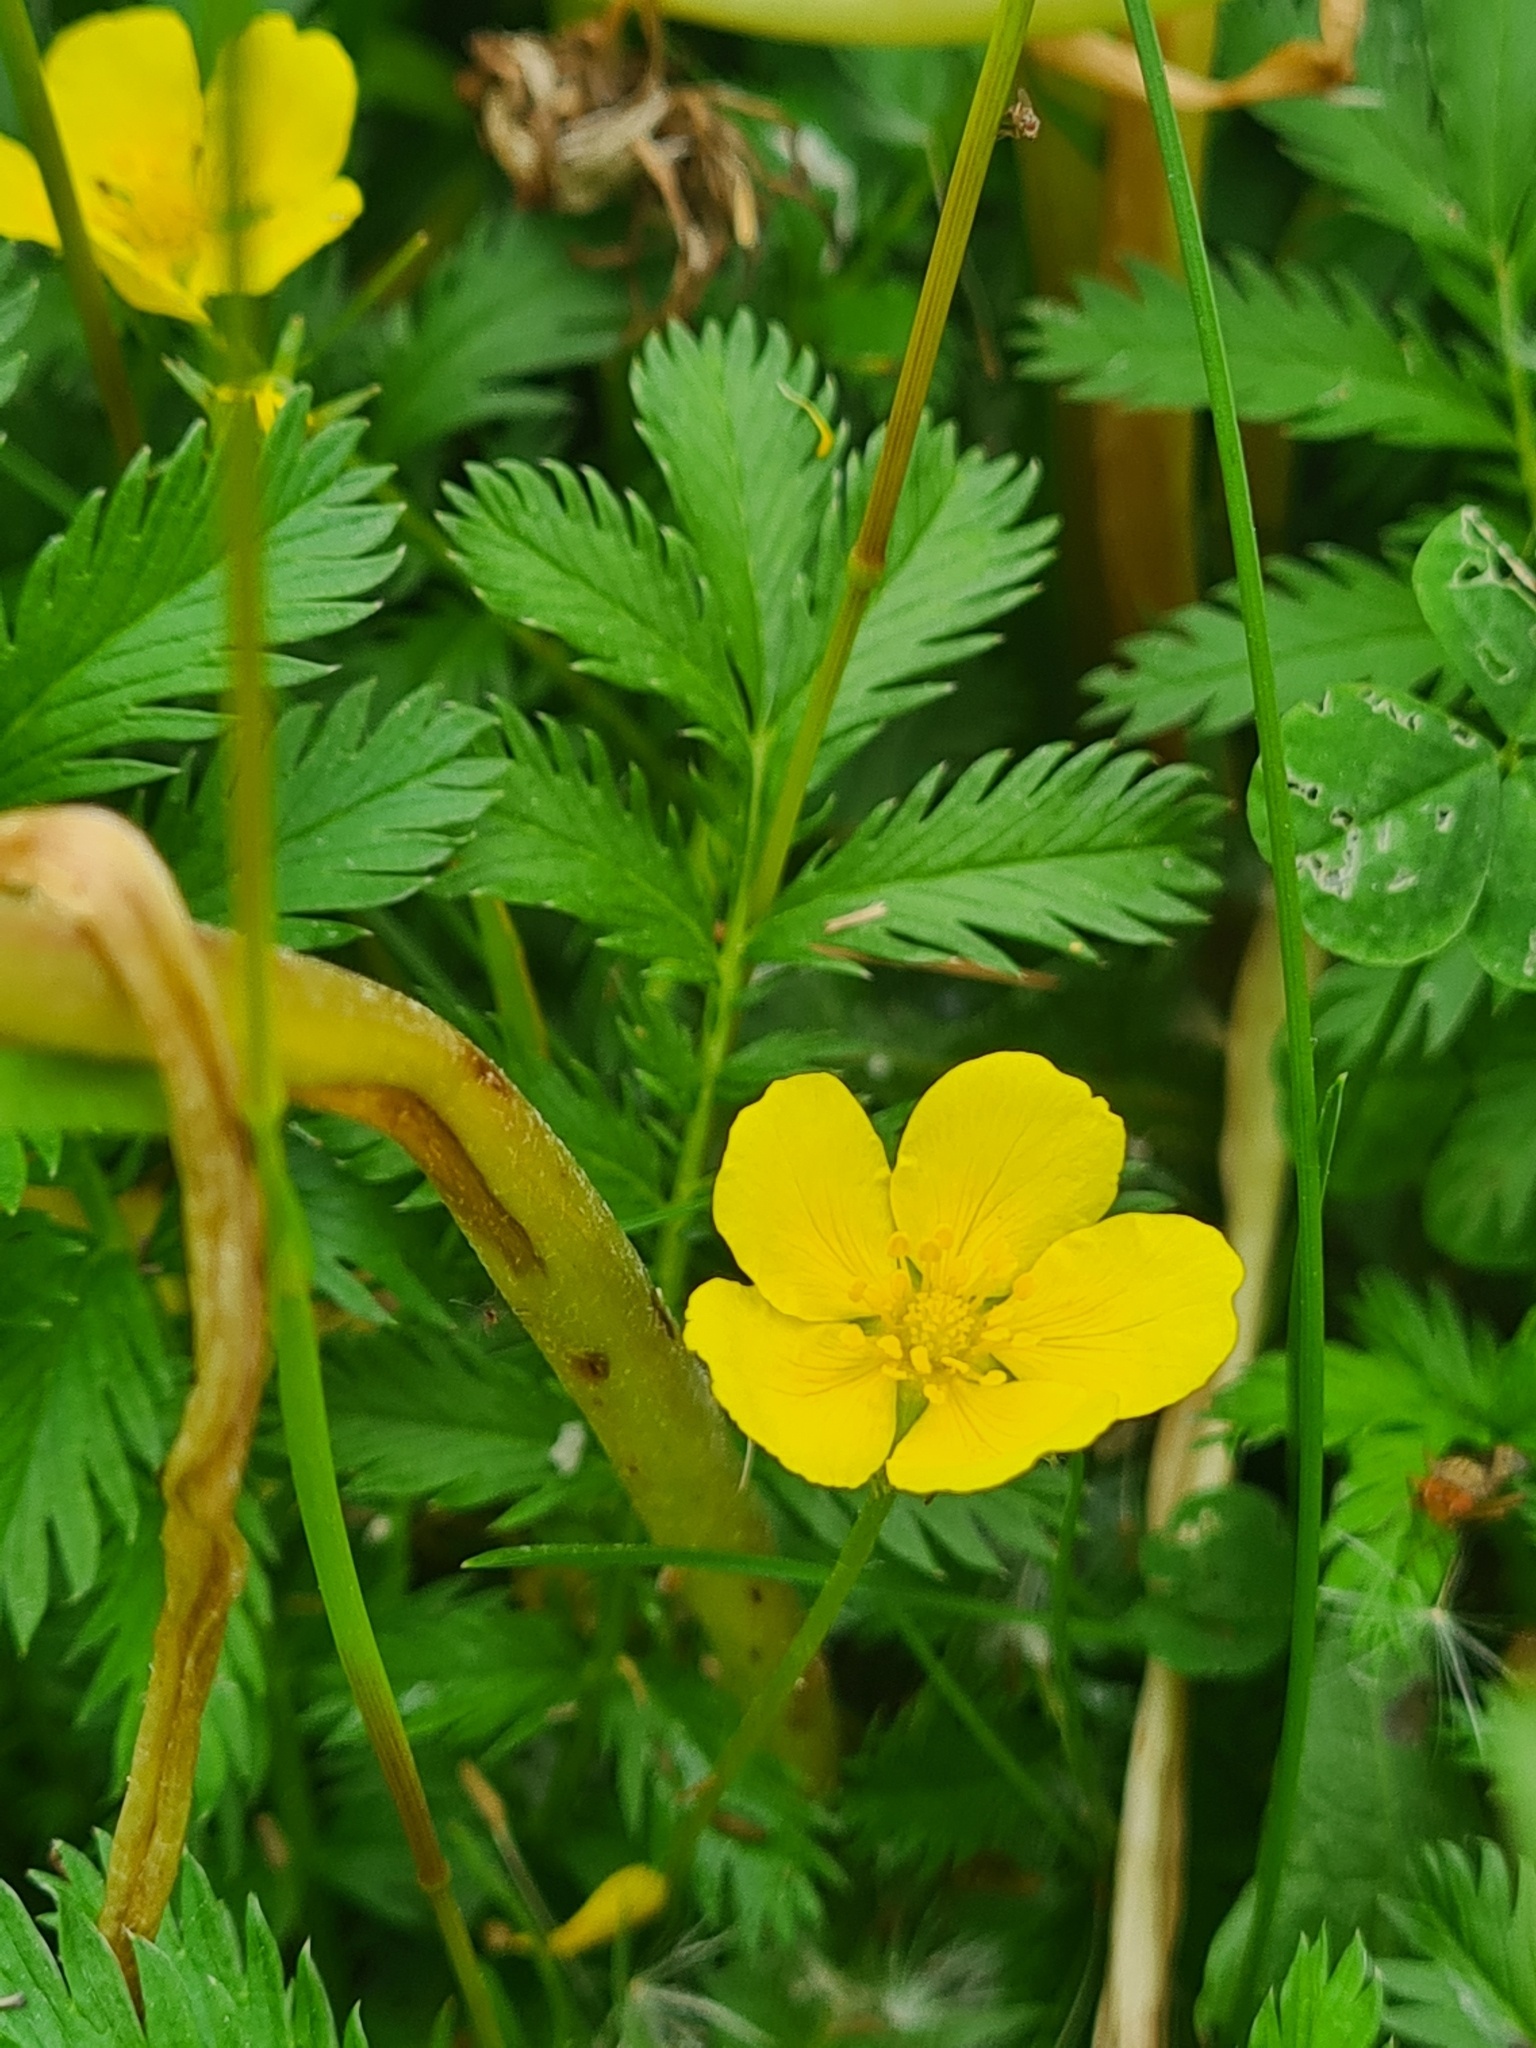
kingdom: Plantae
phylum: Tracheophyta
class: Magnoliopsida
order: Rosales
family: Rosaceae
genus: Argentina
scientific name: Argentina anserina
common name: Common silverweed
